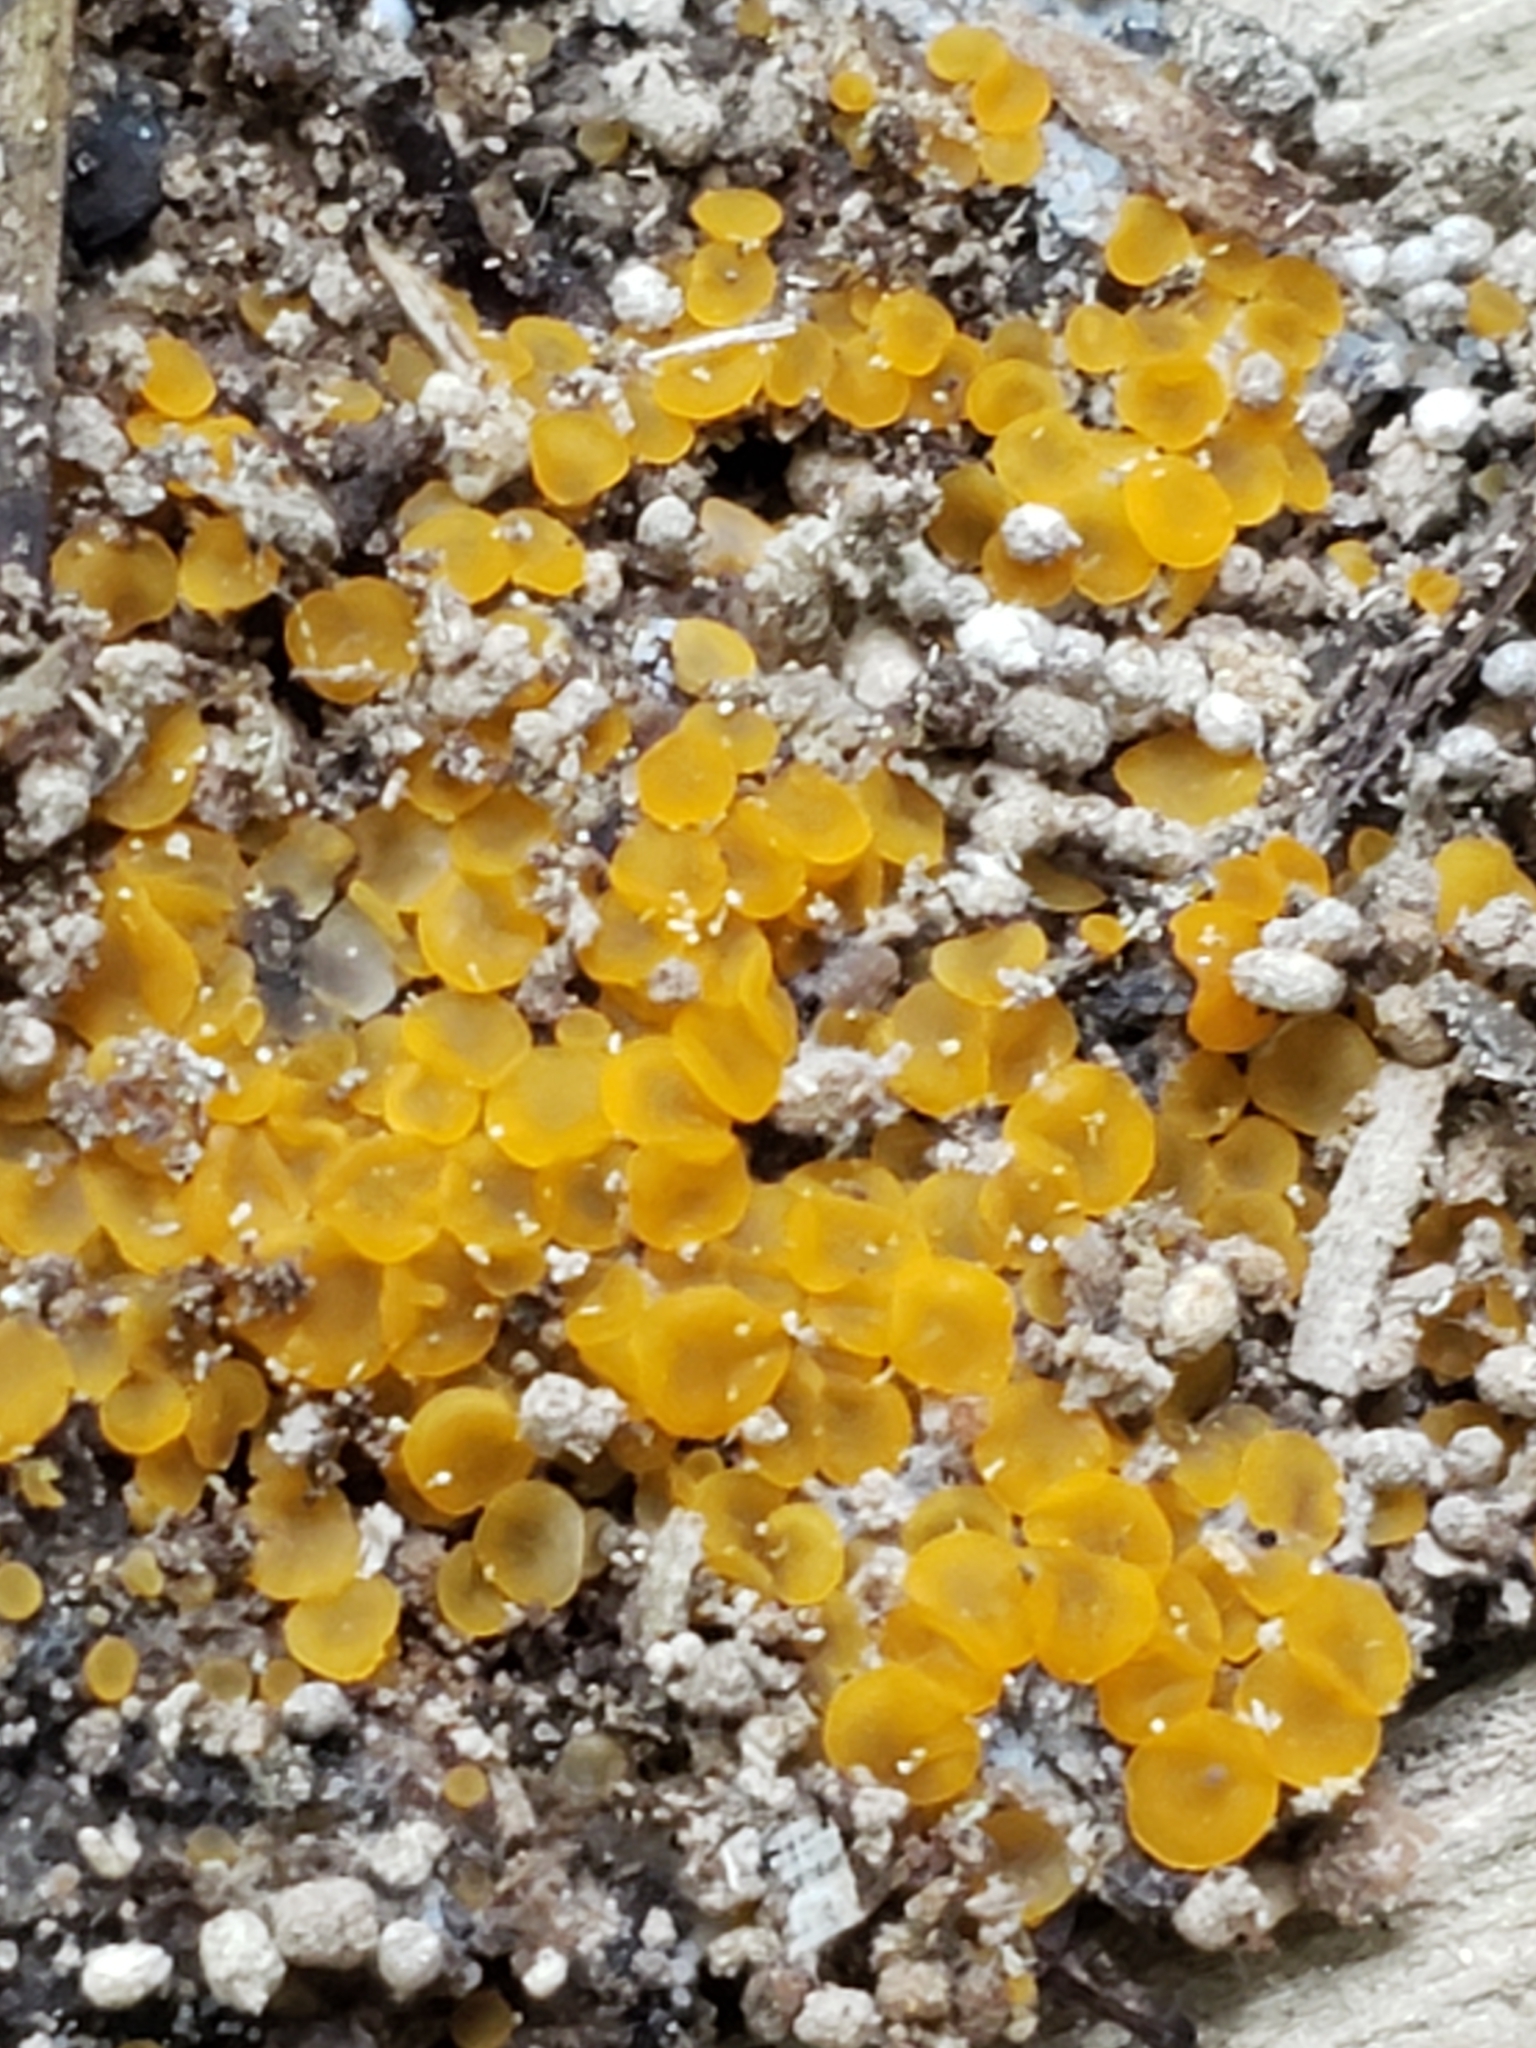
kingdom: Fungi
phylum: Ascomycota
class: Orbiliomycetes
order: Orbiliales
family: Orbiliaceae
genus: Orbilia
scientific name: Orbilia
